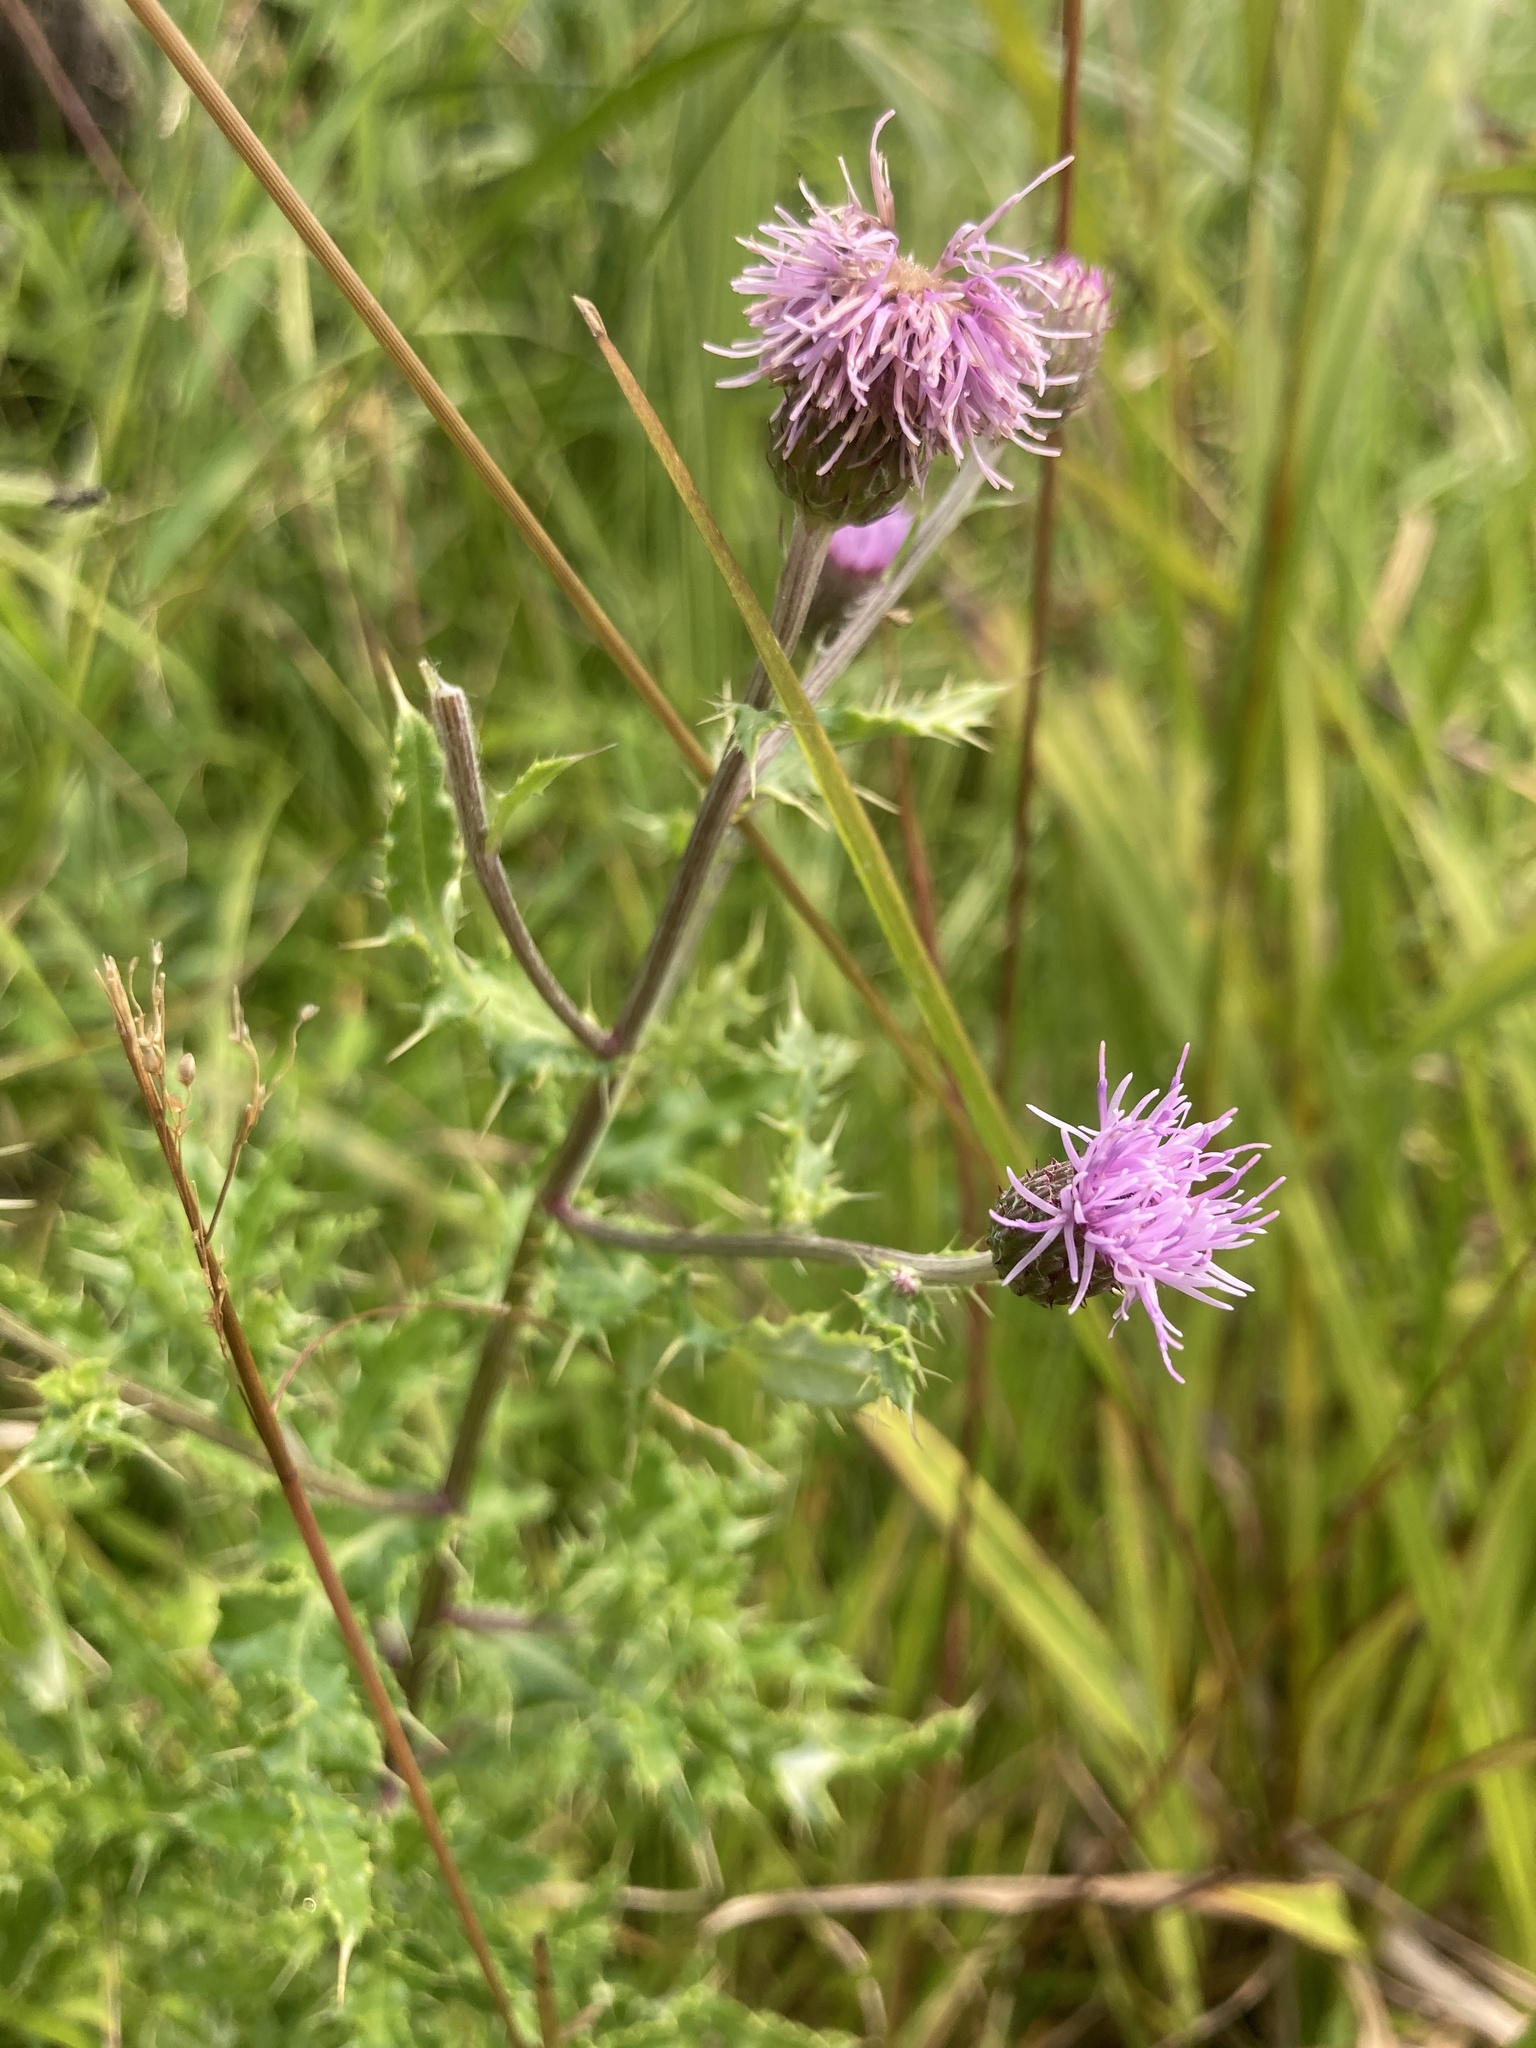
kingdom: Plantae
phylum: Tracheophyta
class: Magnoliopsida
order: Asterales
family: Asteraceae
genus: Cirsium
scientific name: Cirsium arvense
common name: Creeping thistle
